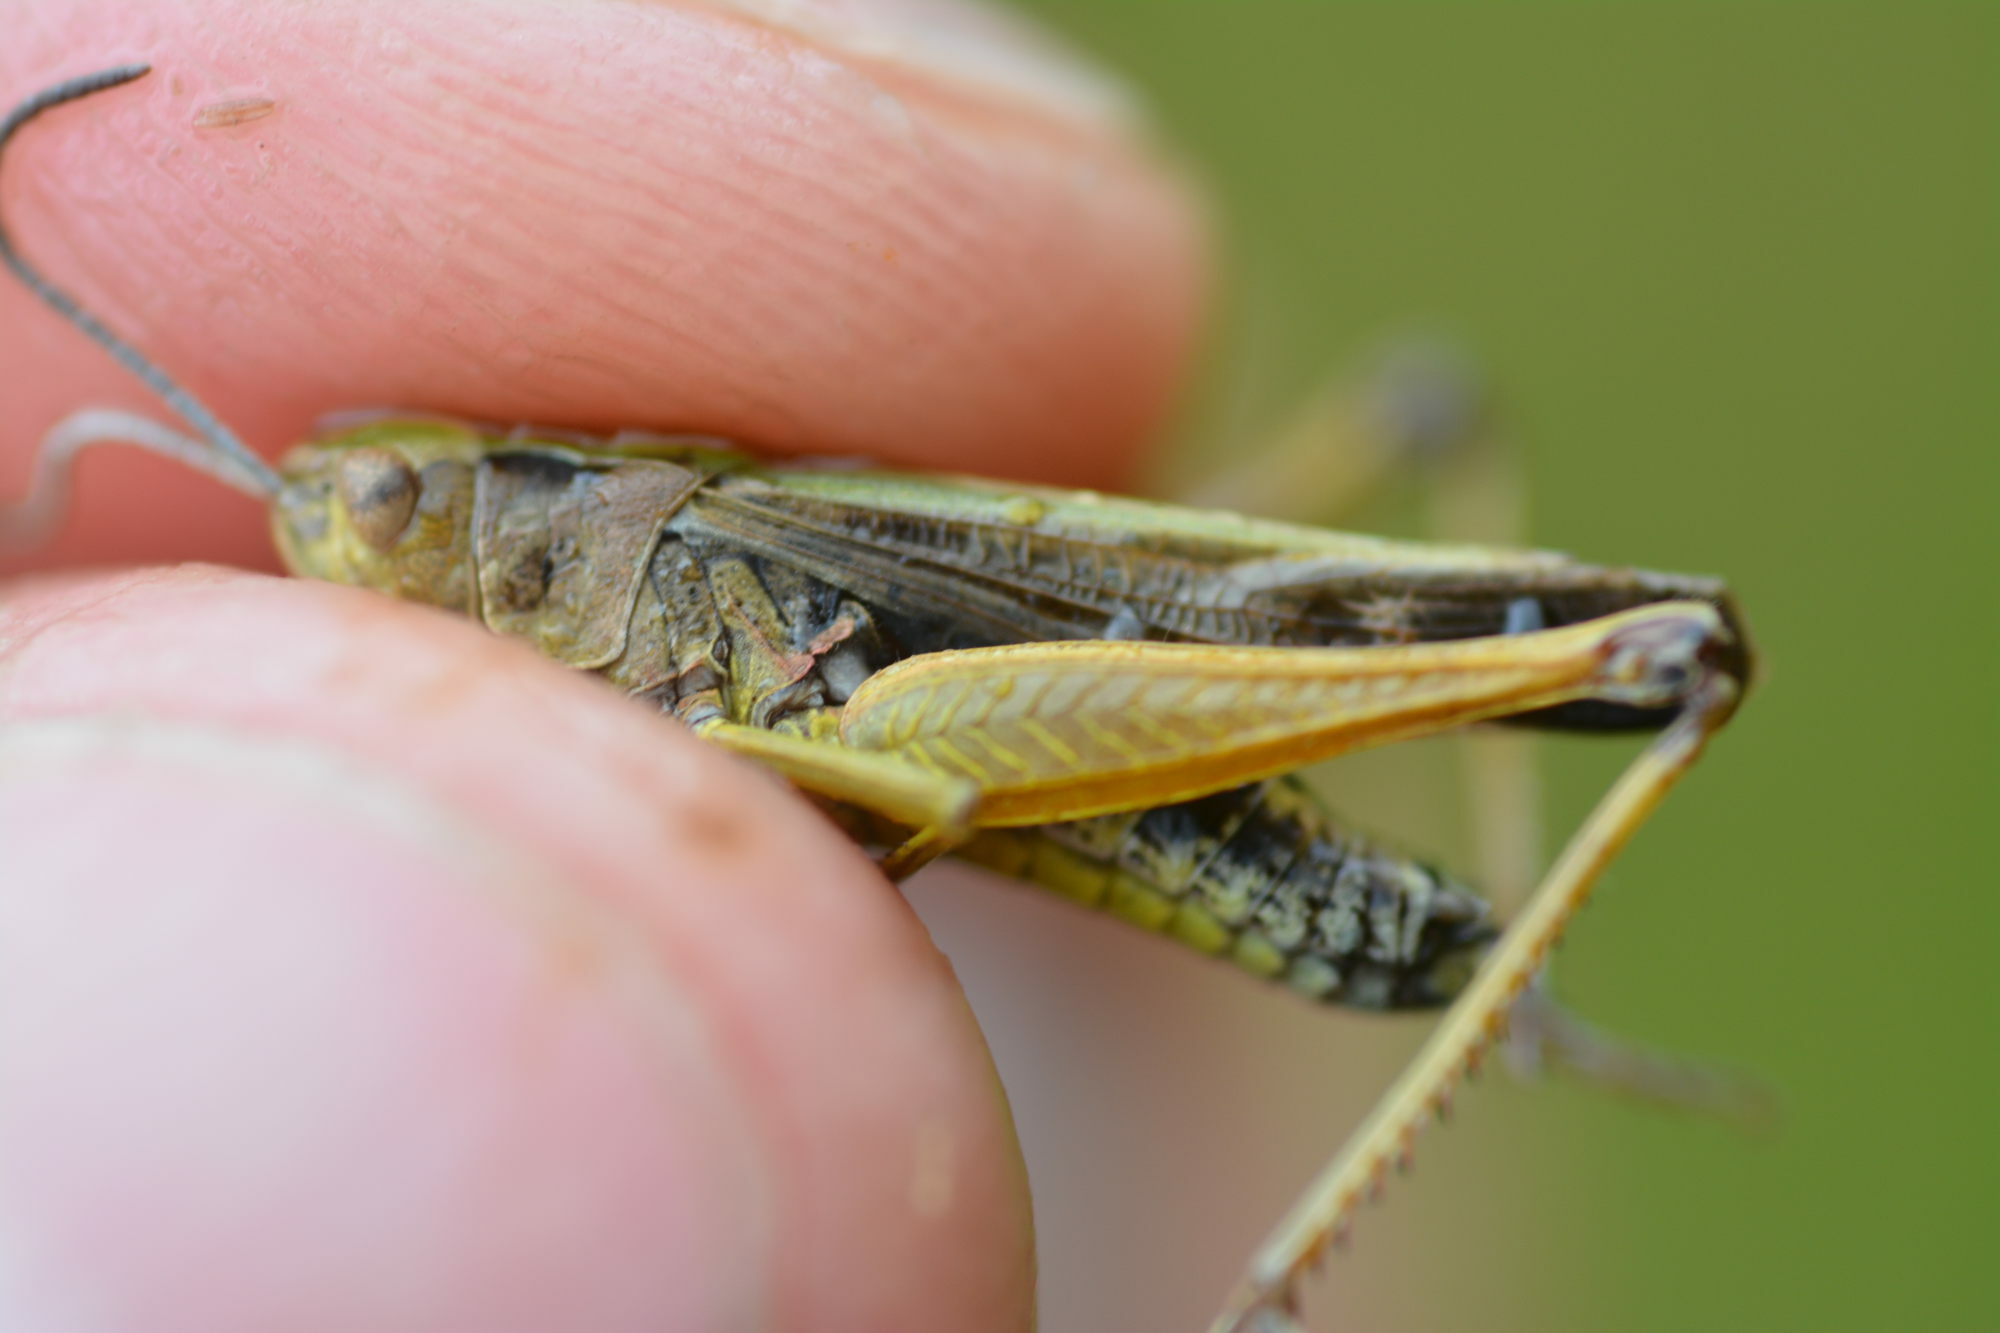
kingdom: Animalia
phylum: Arthropoda
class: Insecta
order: Orthoptera
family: Acrididae
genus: Omocestus
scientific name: Omocestus viridulus
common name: Common green grasshopper
